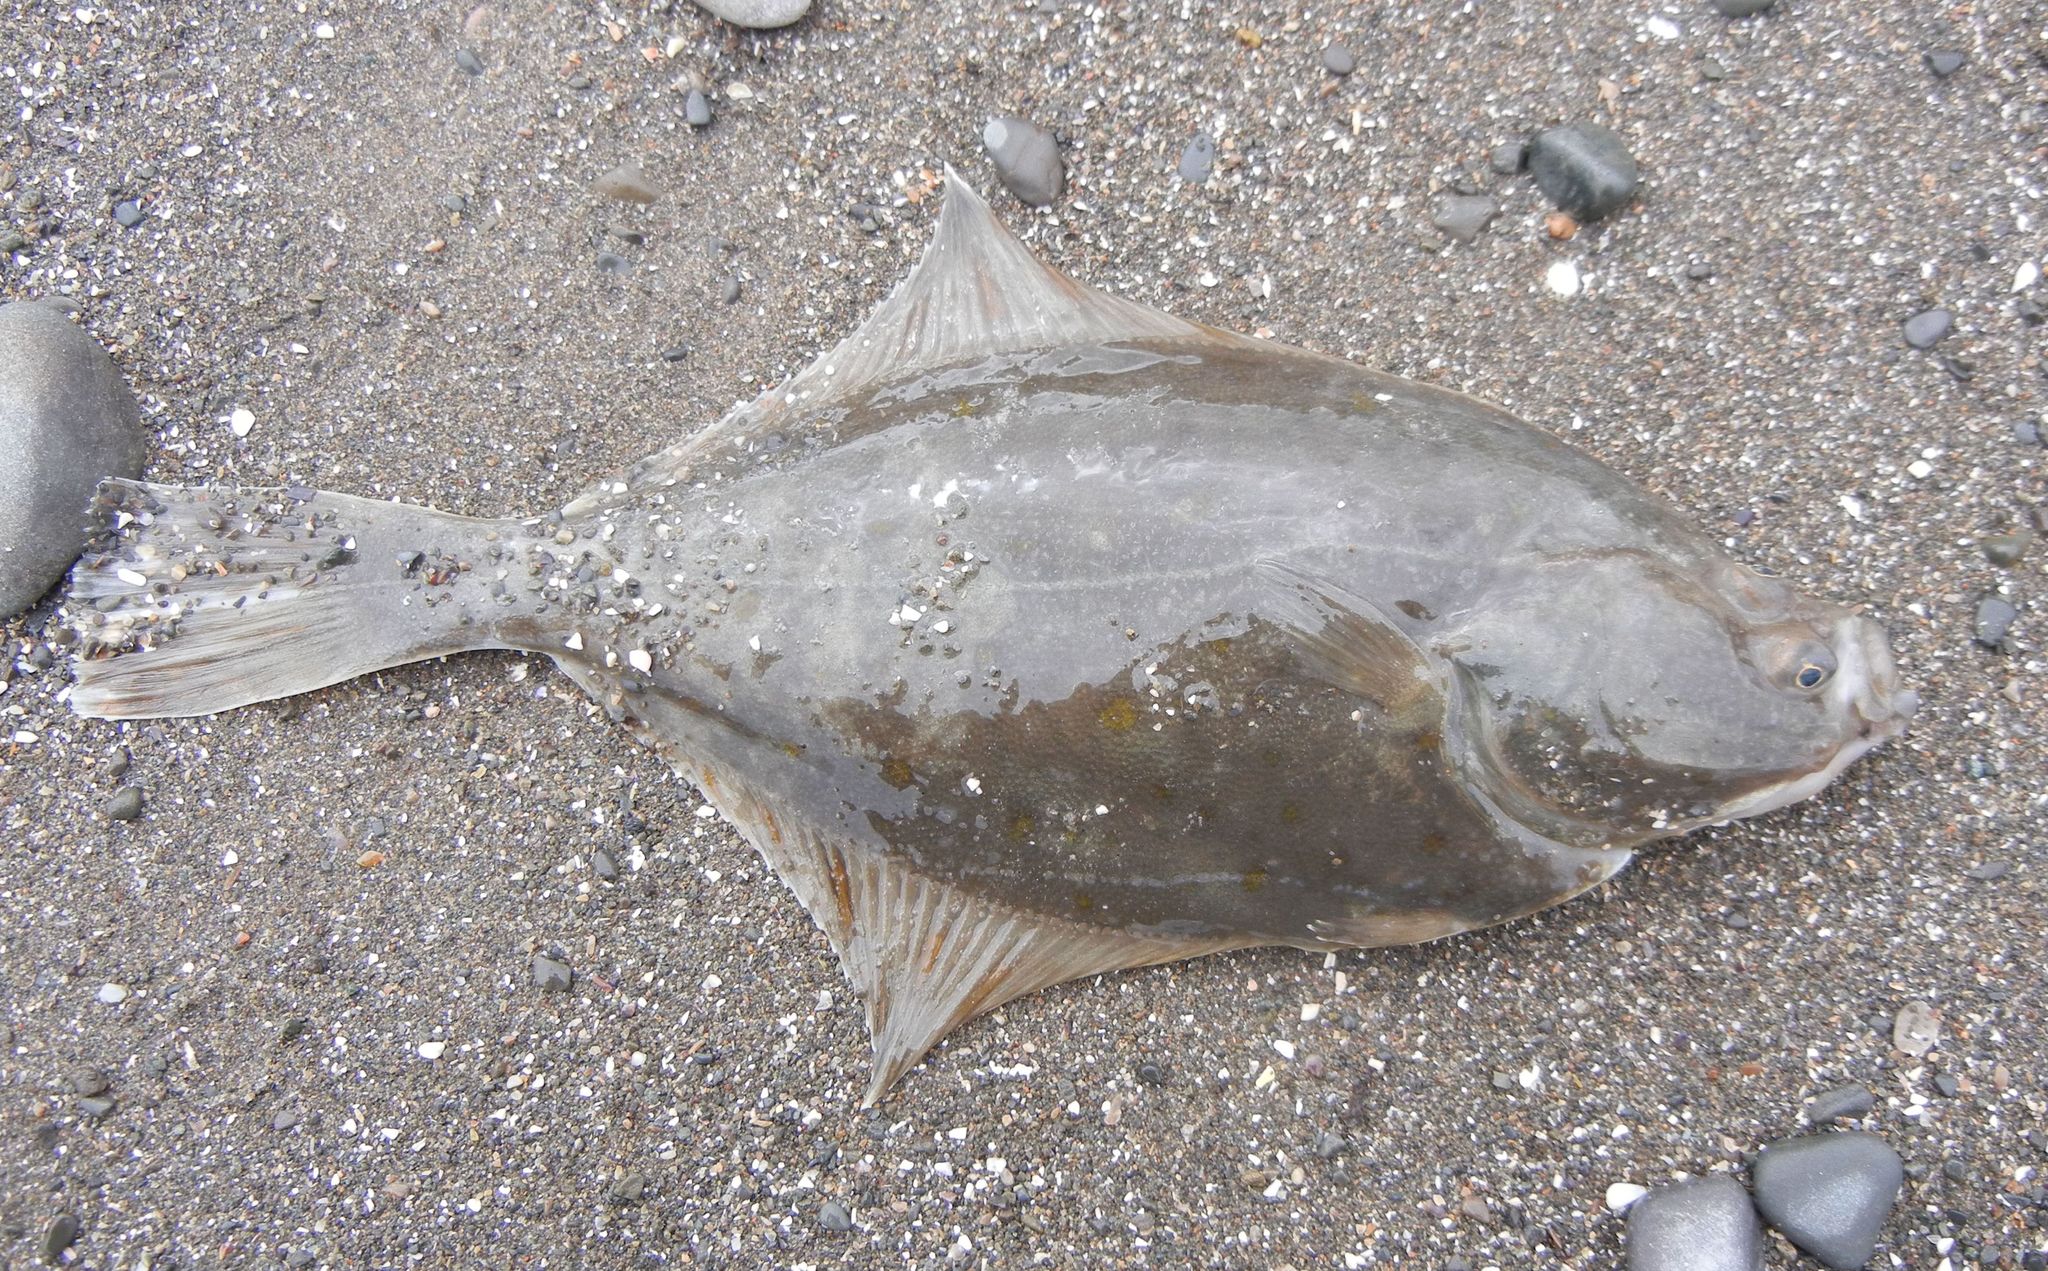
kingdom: Animalia
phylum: Chordata
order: Pleuronectiformes
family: Pleuronectidae
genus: Platichthys
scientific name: Platichthys flesus
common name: European flounder
